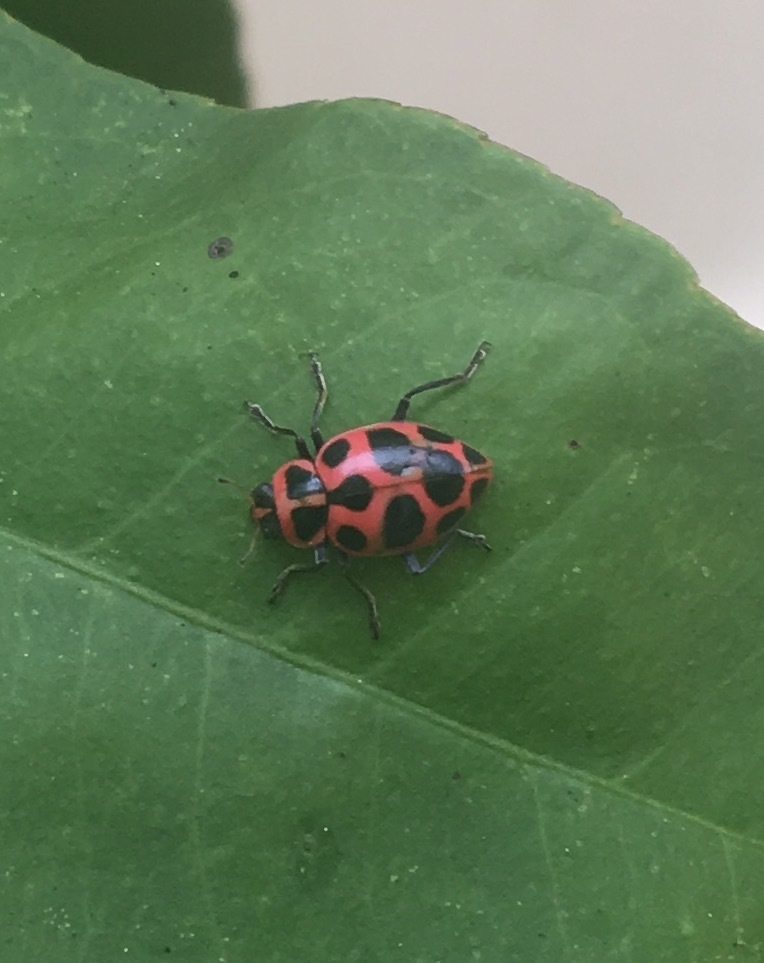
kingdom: Animalia
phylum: Arthropoda
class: Insecta
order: Coleoptera
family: Coccinellidae
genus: Coleomegilla
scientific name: Coleomegilla maculata
